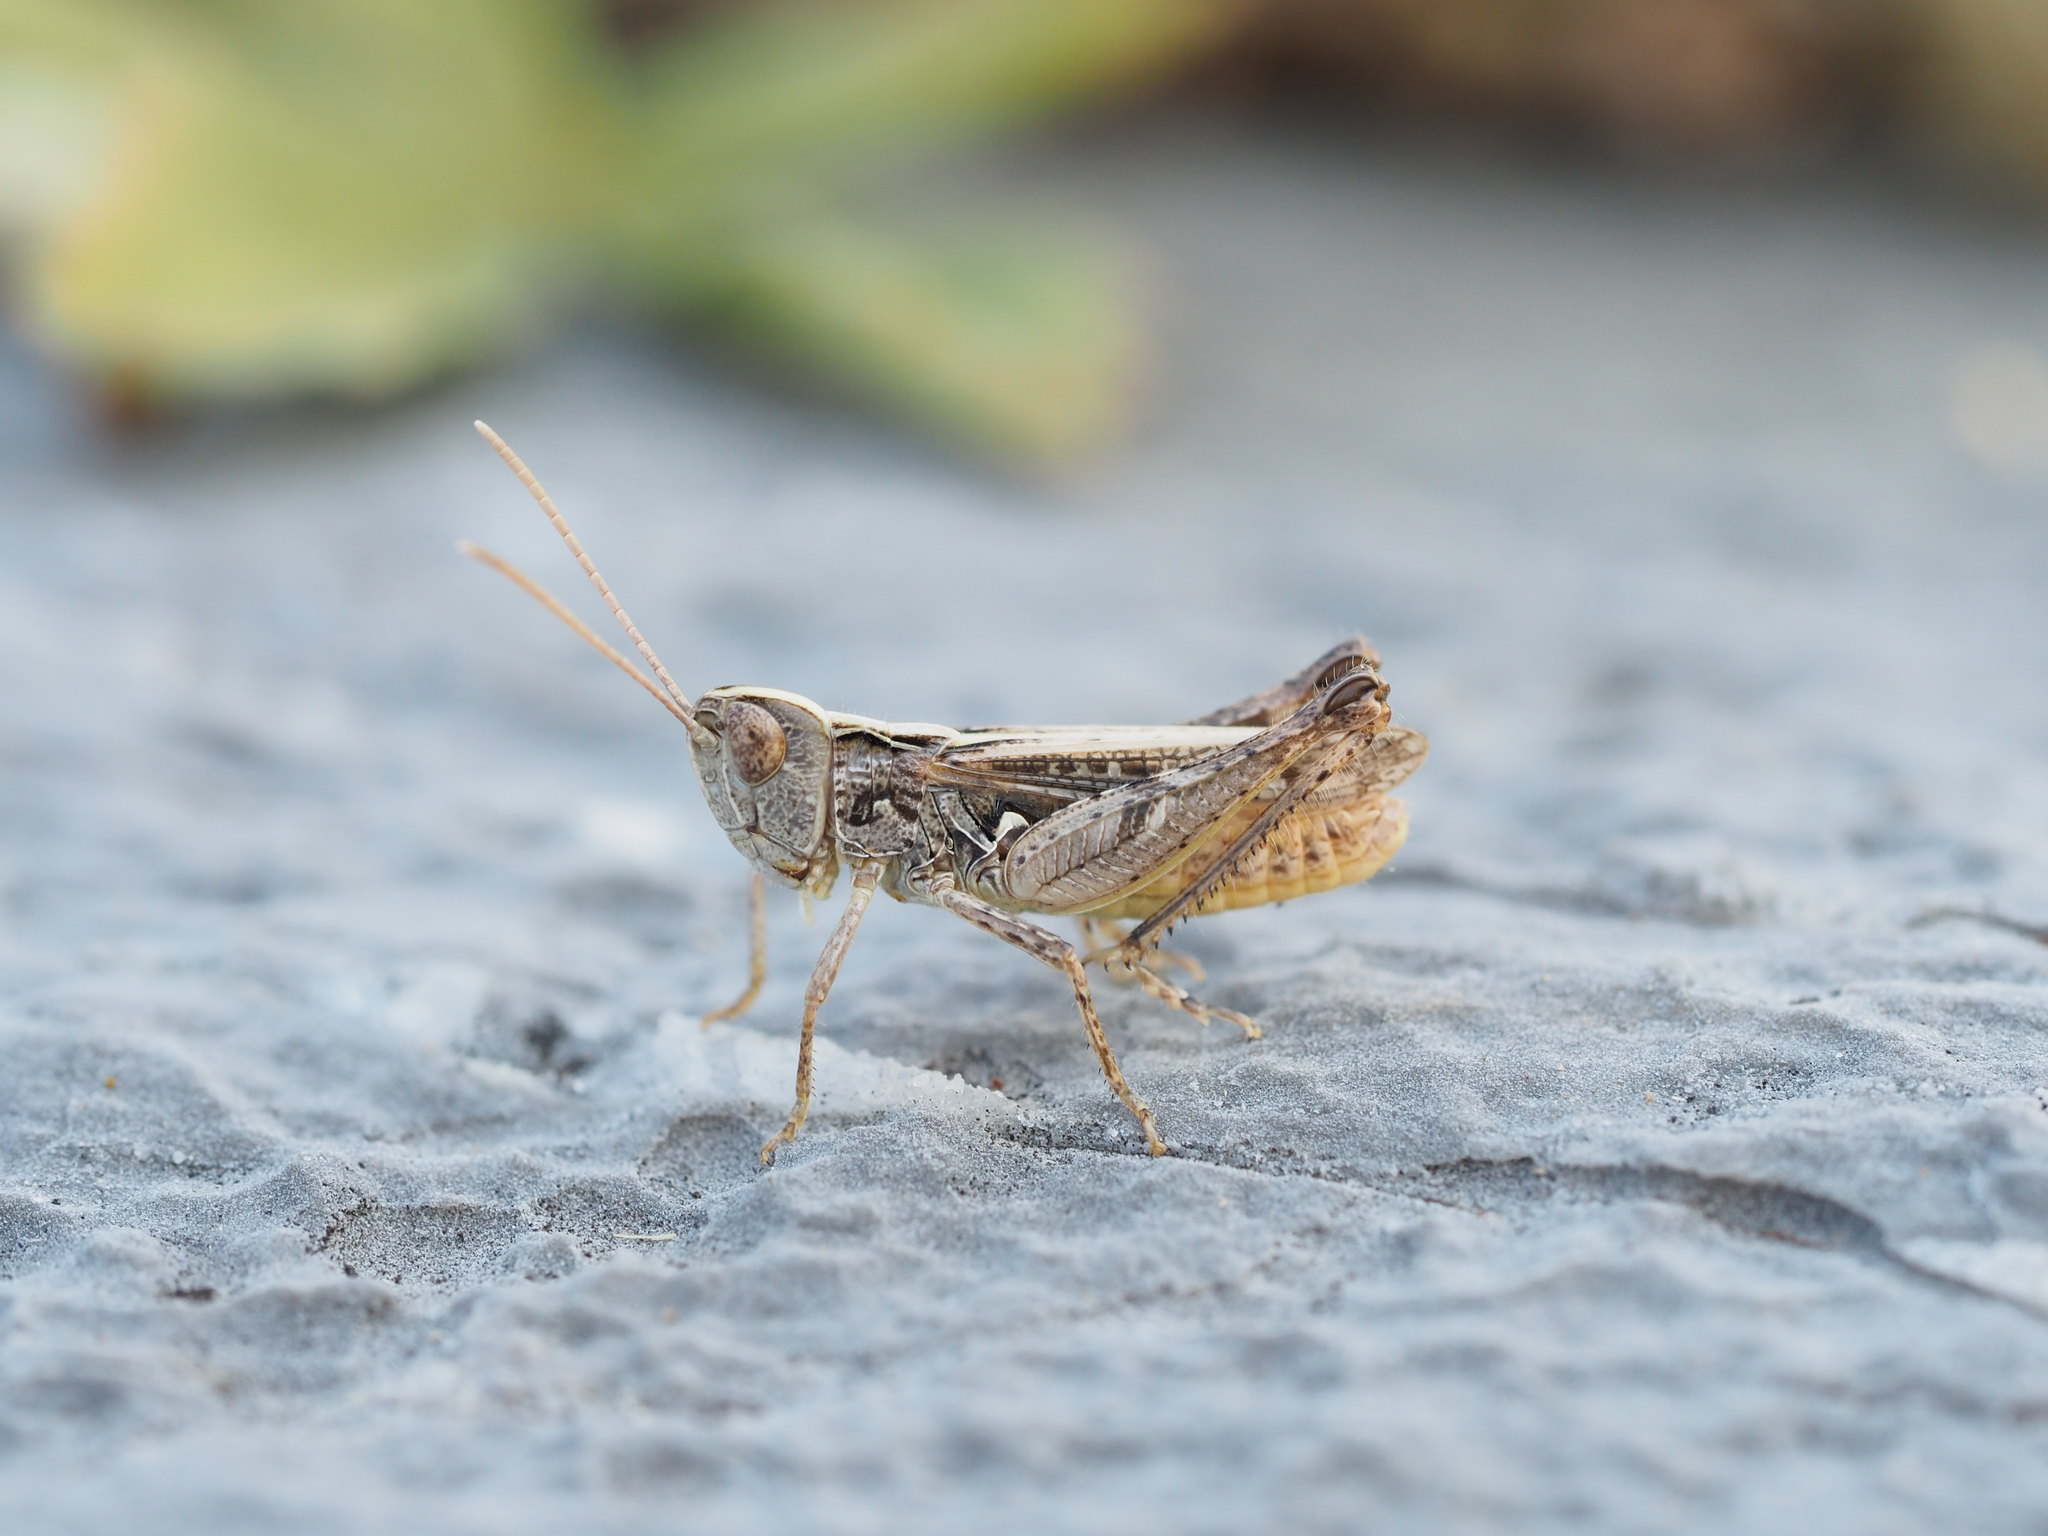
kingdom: Animalia
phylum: Arthropoda
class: Insecta
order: Orthoptera
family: Acrididae
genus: Omocestus
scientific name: Omocestus petraeus
